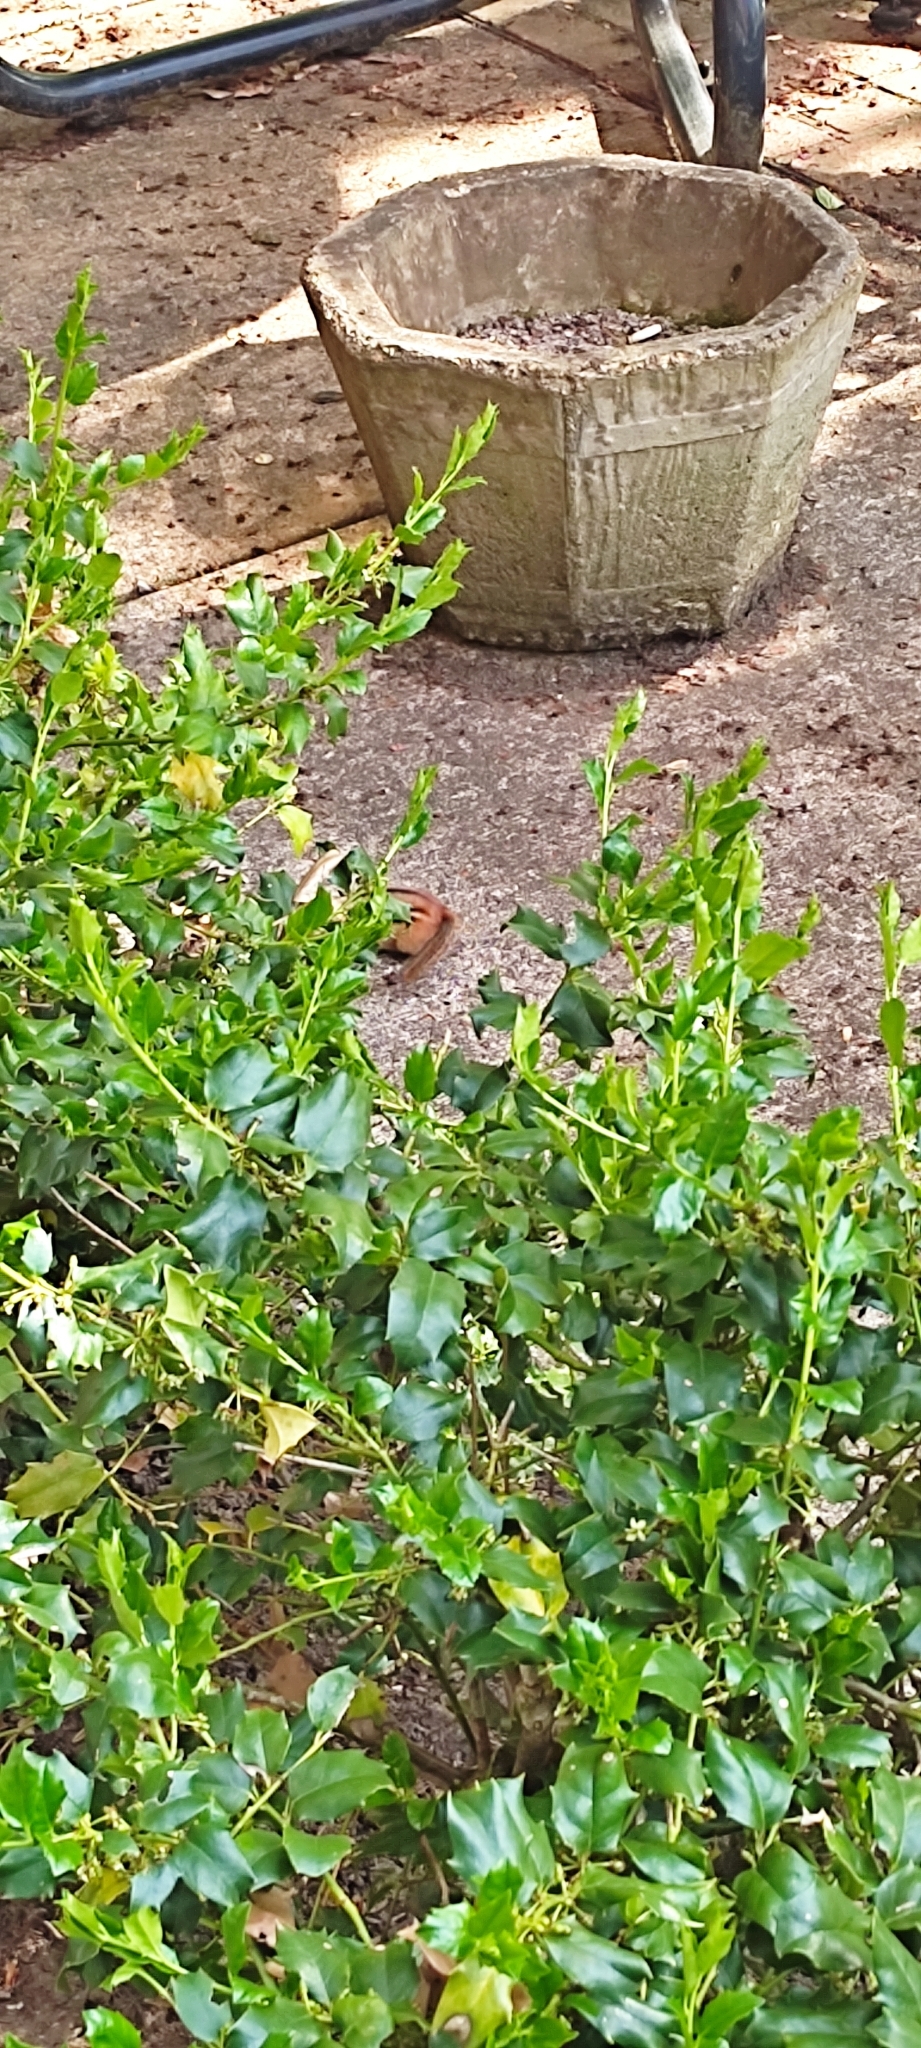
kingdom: Animalia
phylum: Chordata
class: Mammalia
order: Rodentia
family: Sciuridae
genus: Tamias
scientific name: Tamias striatus
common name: Eastern chipmunk
